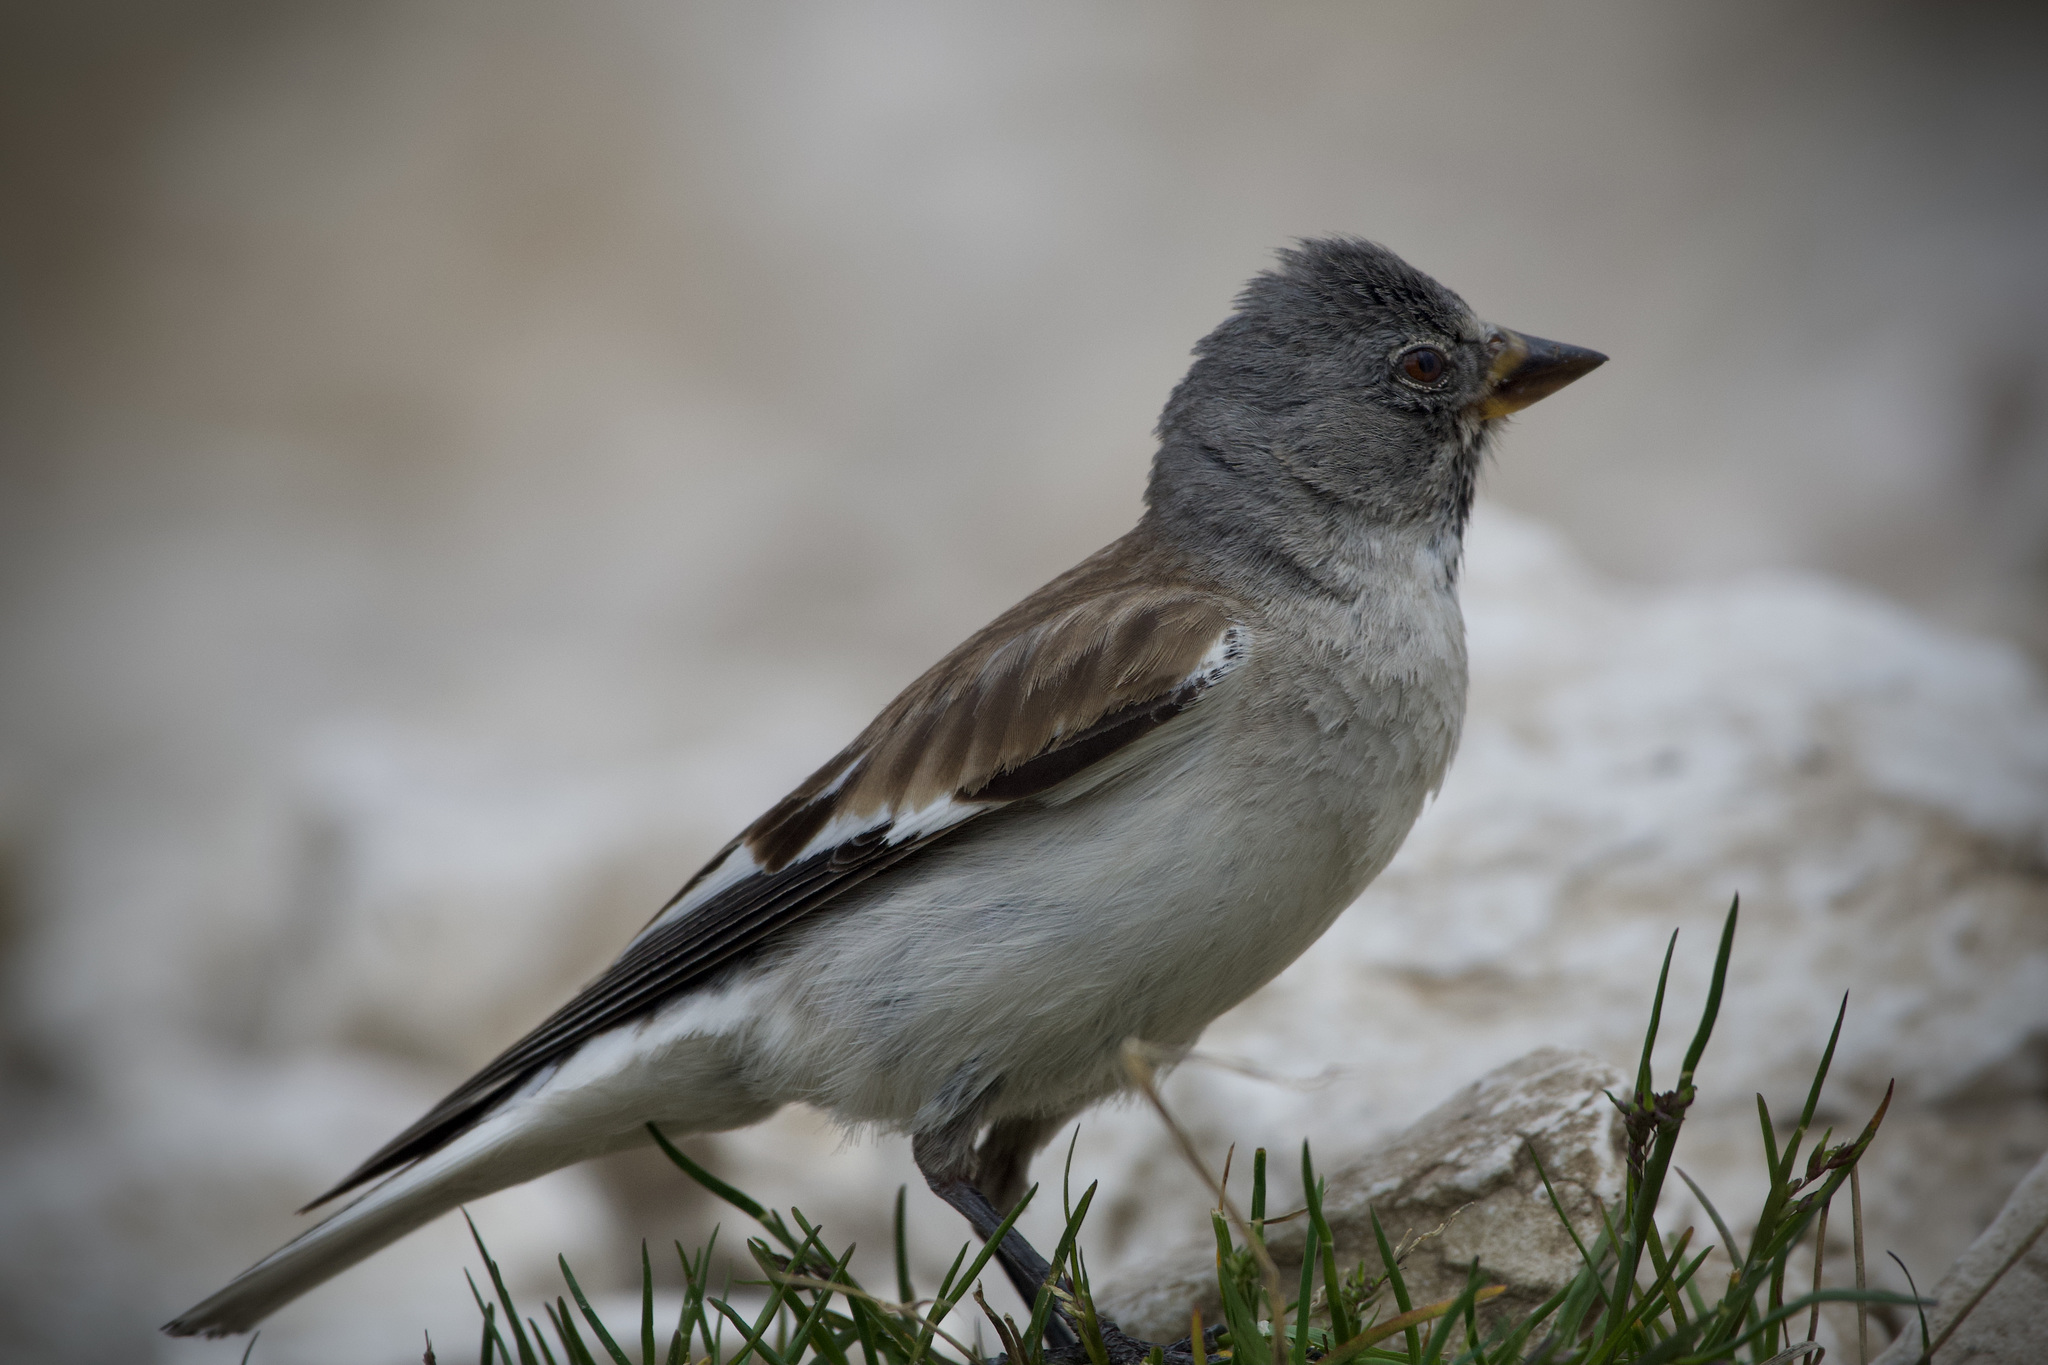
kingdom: Animalia
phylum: Chordata
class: Aves
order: Passeriformes
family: Passeridae
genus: Montifringilla
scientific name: Montifringilla nivalis
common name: White-winged snowfinch
